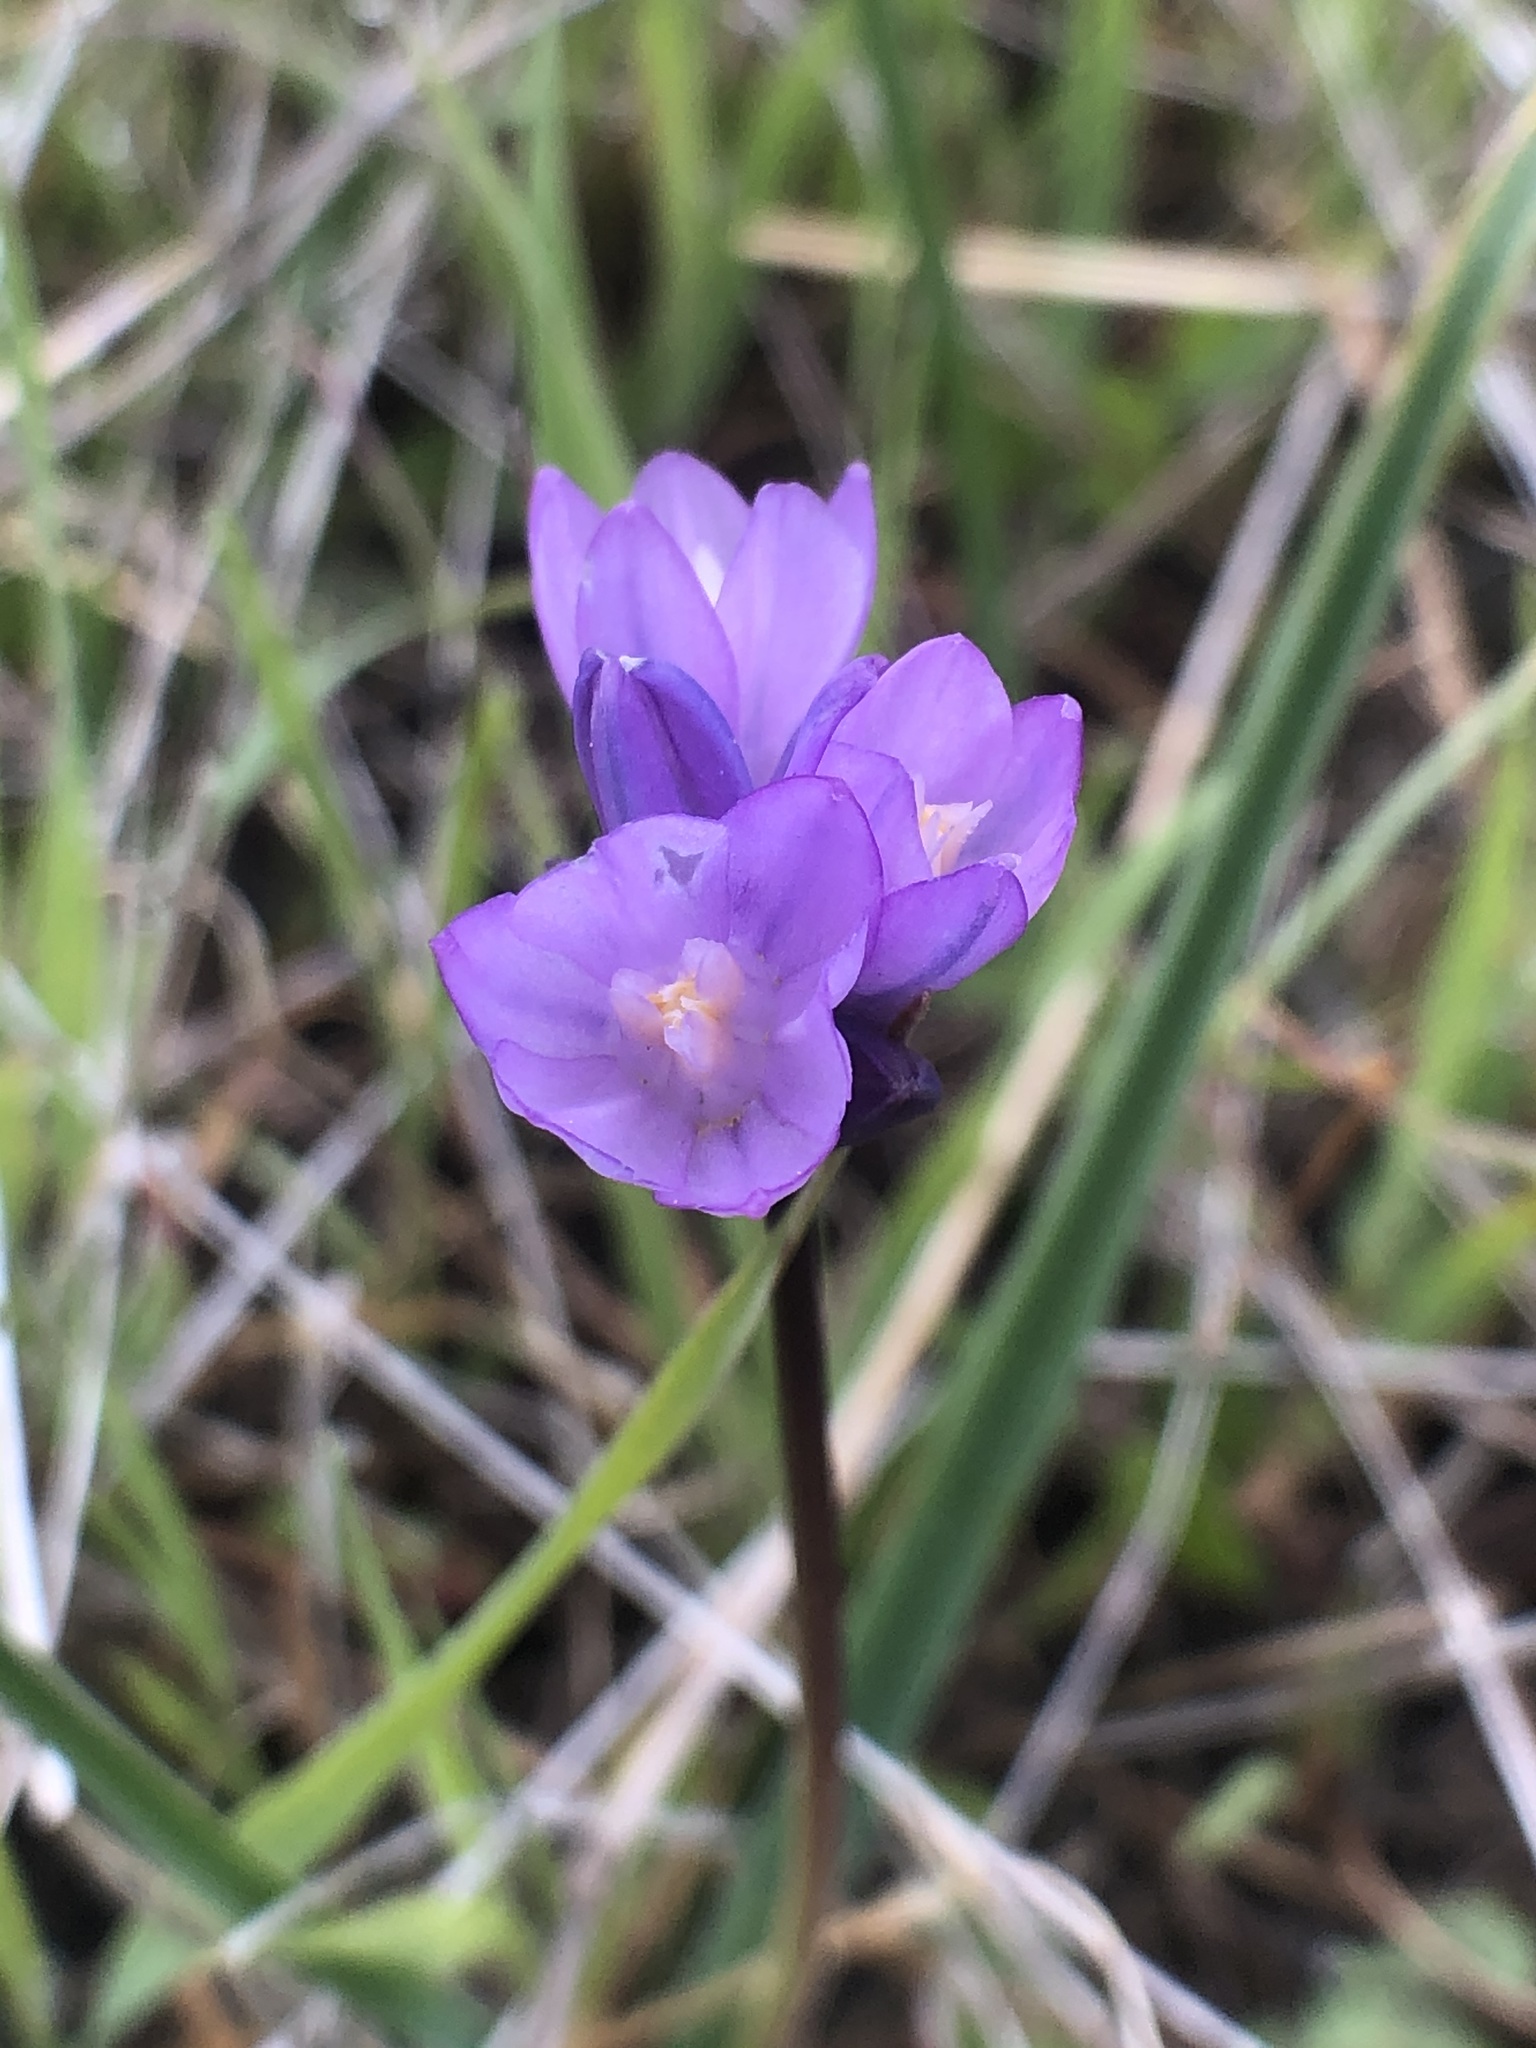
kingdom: Plantae
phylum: Tracheophyta
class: Liliopsida
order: Asparagales
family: Asparagaceae
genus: Dipterostemon
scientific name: Dipterostemon capitatus
